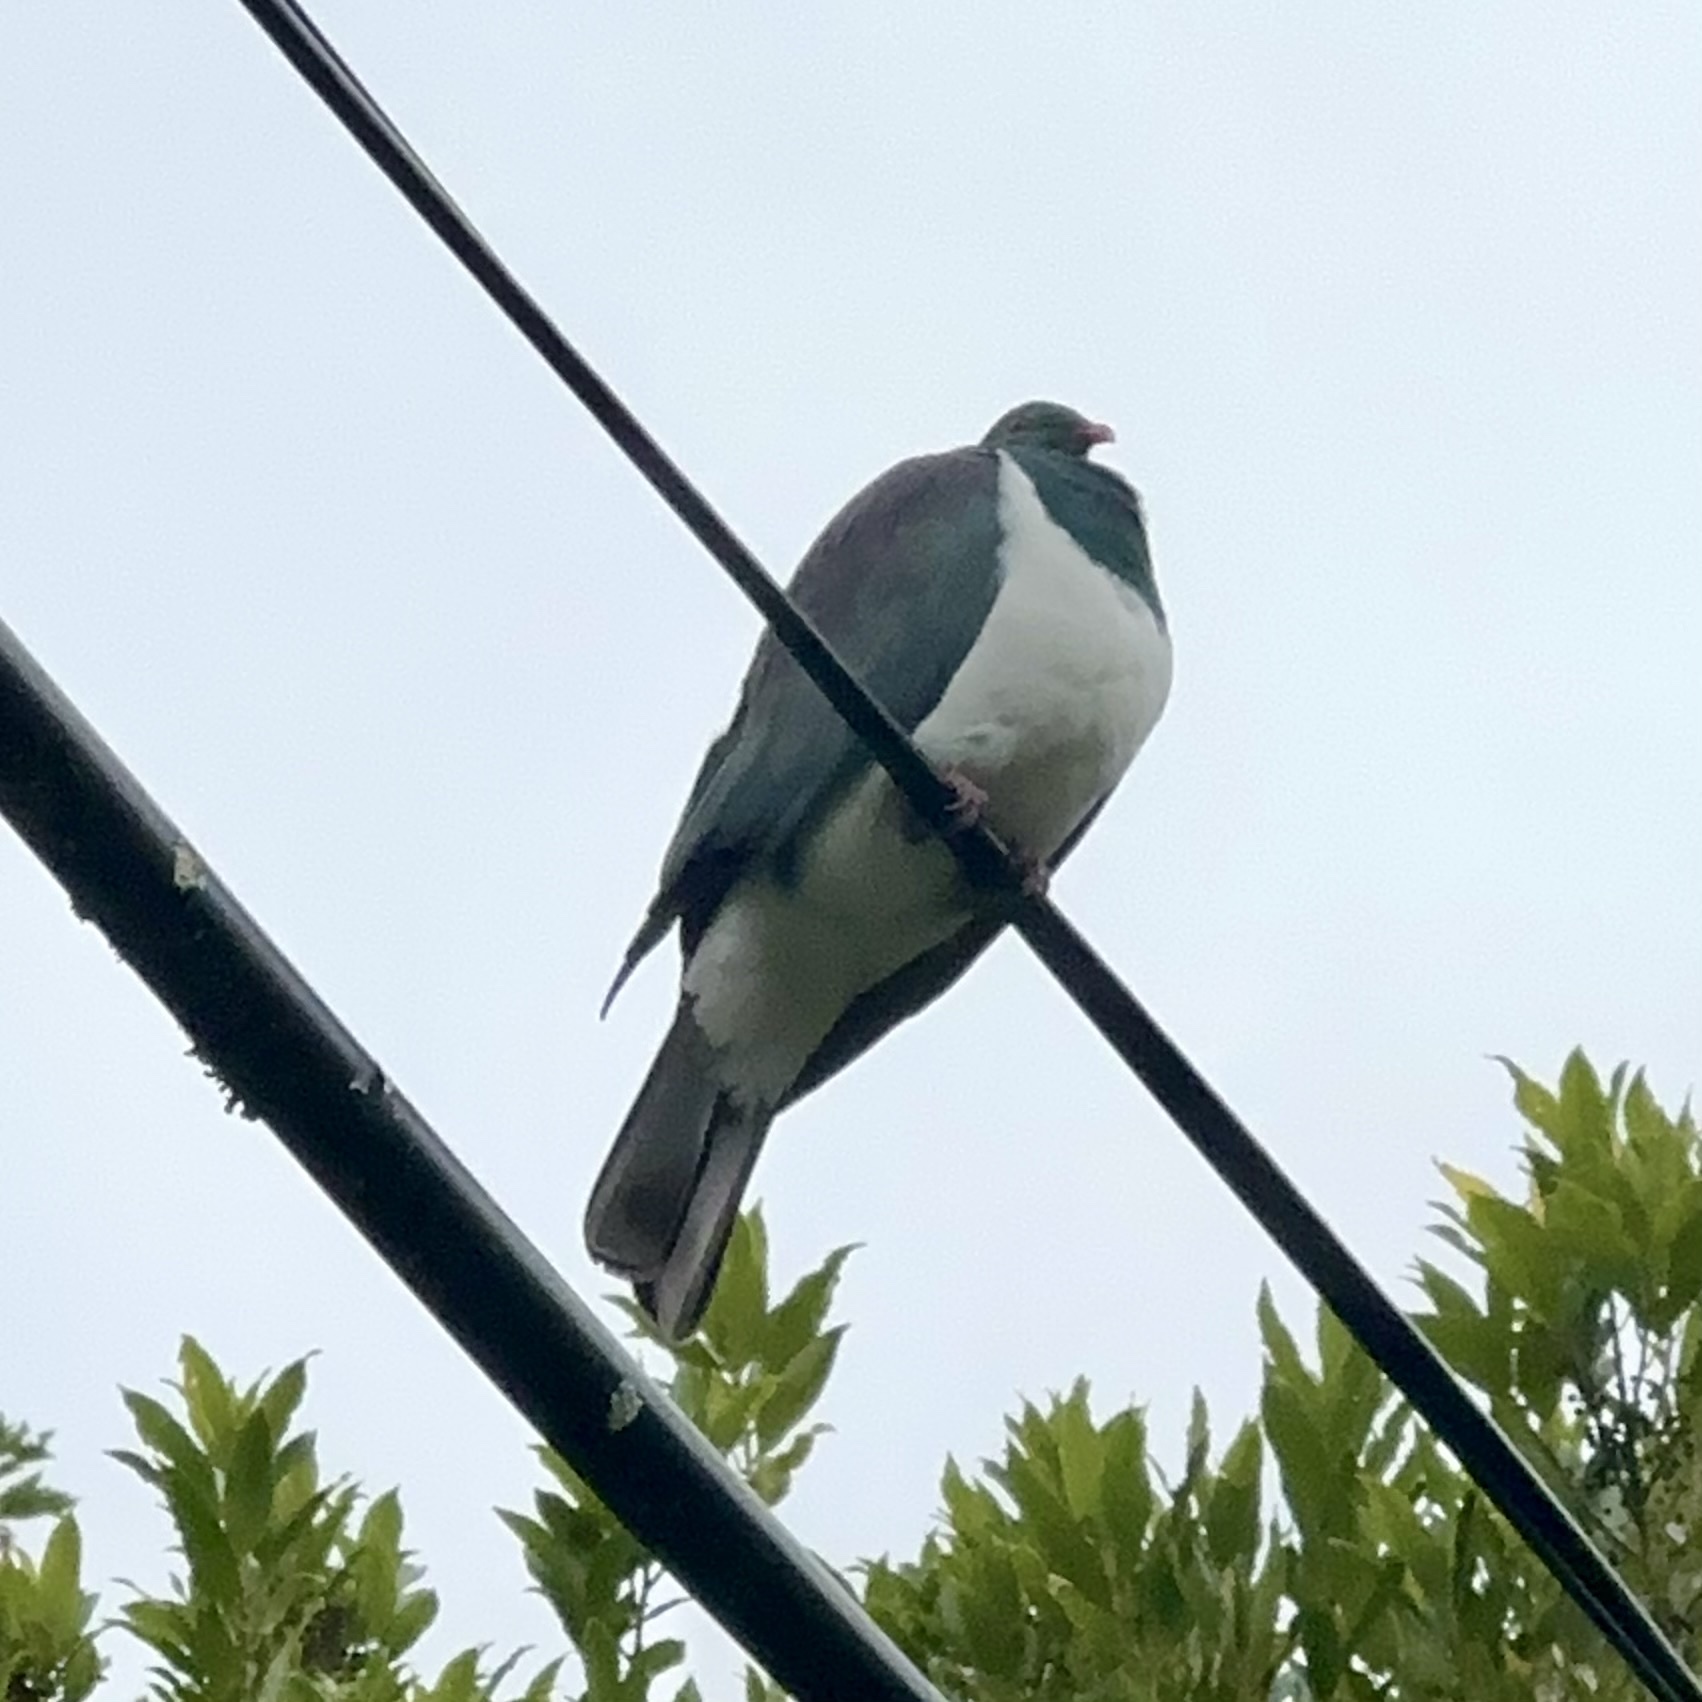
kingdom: Animalia
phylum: Chordata
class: Aves
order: Columbiformes
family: Columbidae
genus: Hemiphaga
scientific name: Hemiphaga novaeseelandiae
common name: New zealand pigeon
